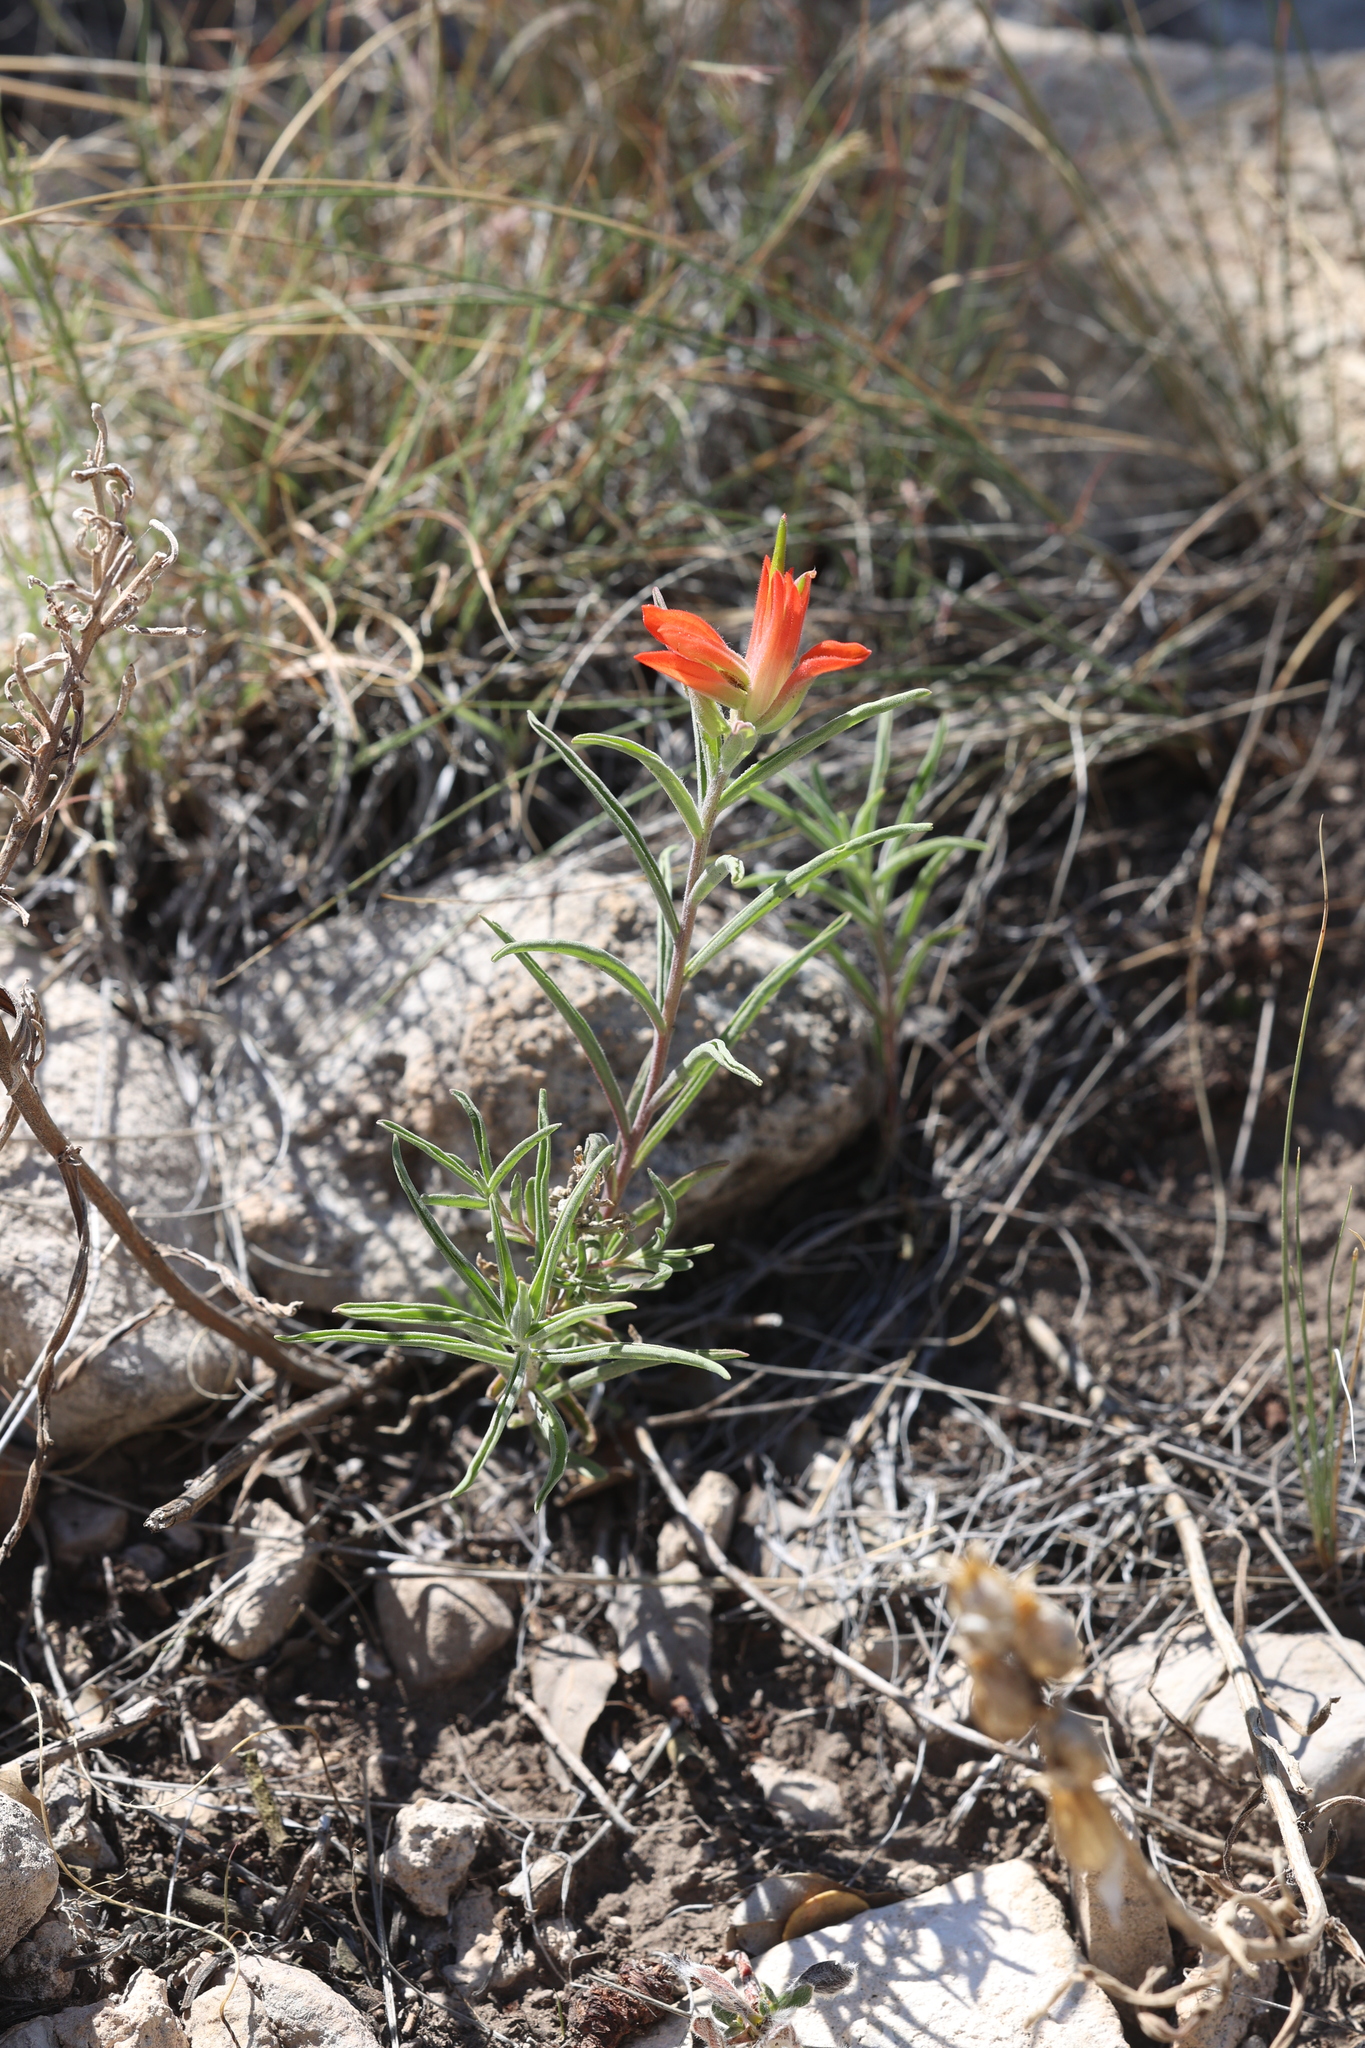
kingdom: Plantae
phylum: Tracheophyta
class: Magnoliopsida
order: Lamiales
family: Orobanchaceae
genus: Castilleja
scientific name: Castilleja integra
